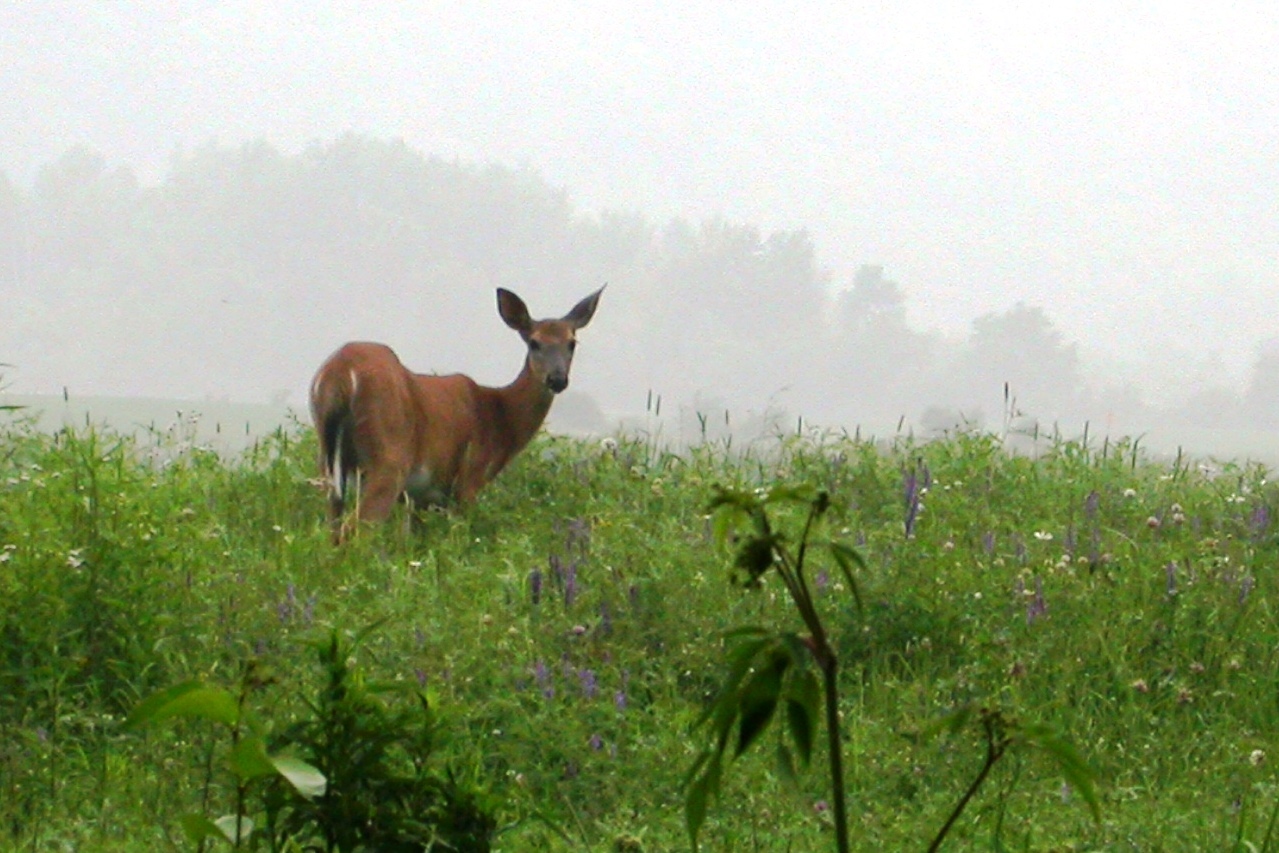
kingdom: Animalia
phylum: Chordata
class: Mammalia
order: Artiodactyla
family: Cervidae
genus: Odocoileus
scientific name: Odocoileus virginianus
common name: White-tailed deer
